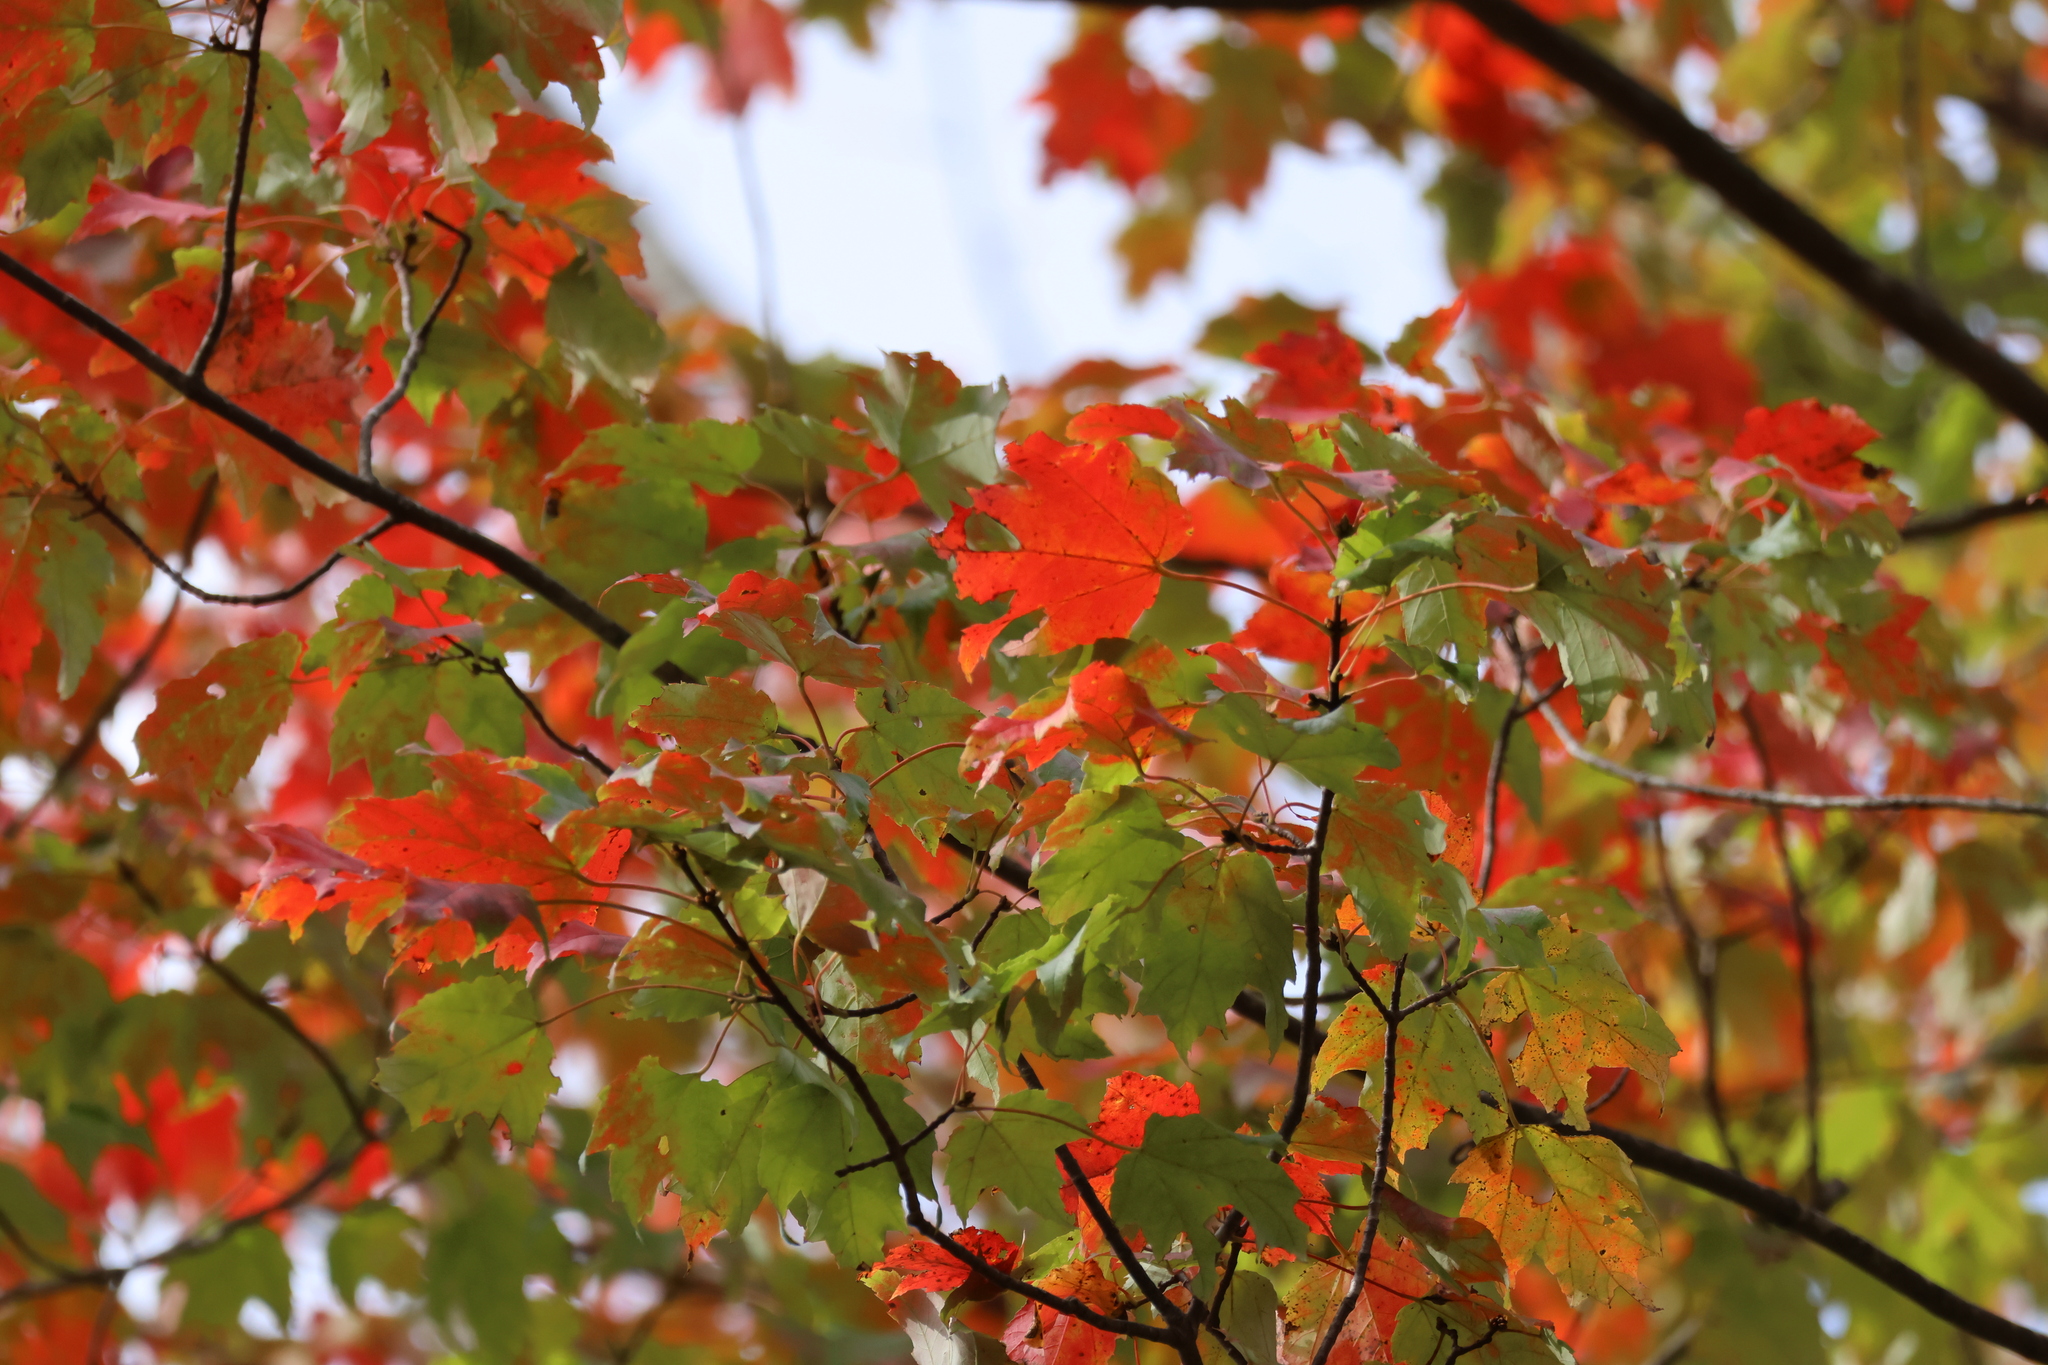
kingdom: Plantae
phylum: Tracheophyta
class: Magnoliopsida
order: Sapindales
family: Sapindaceae
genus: Acer
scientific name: Acer rubrum
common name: Red maple
